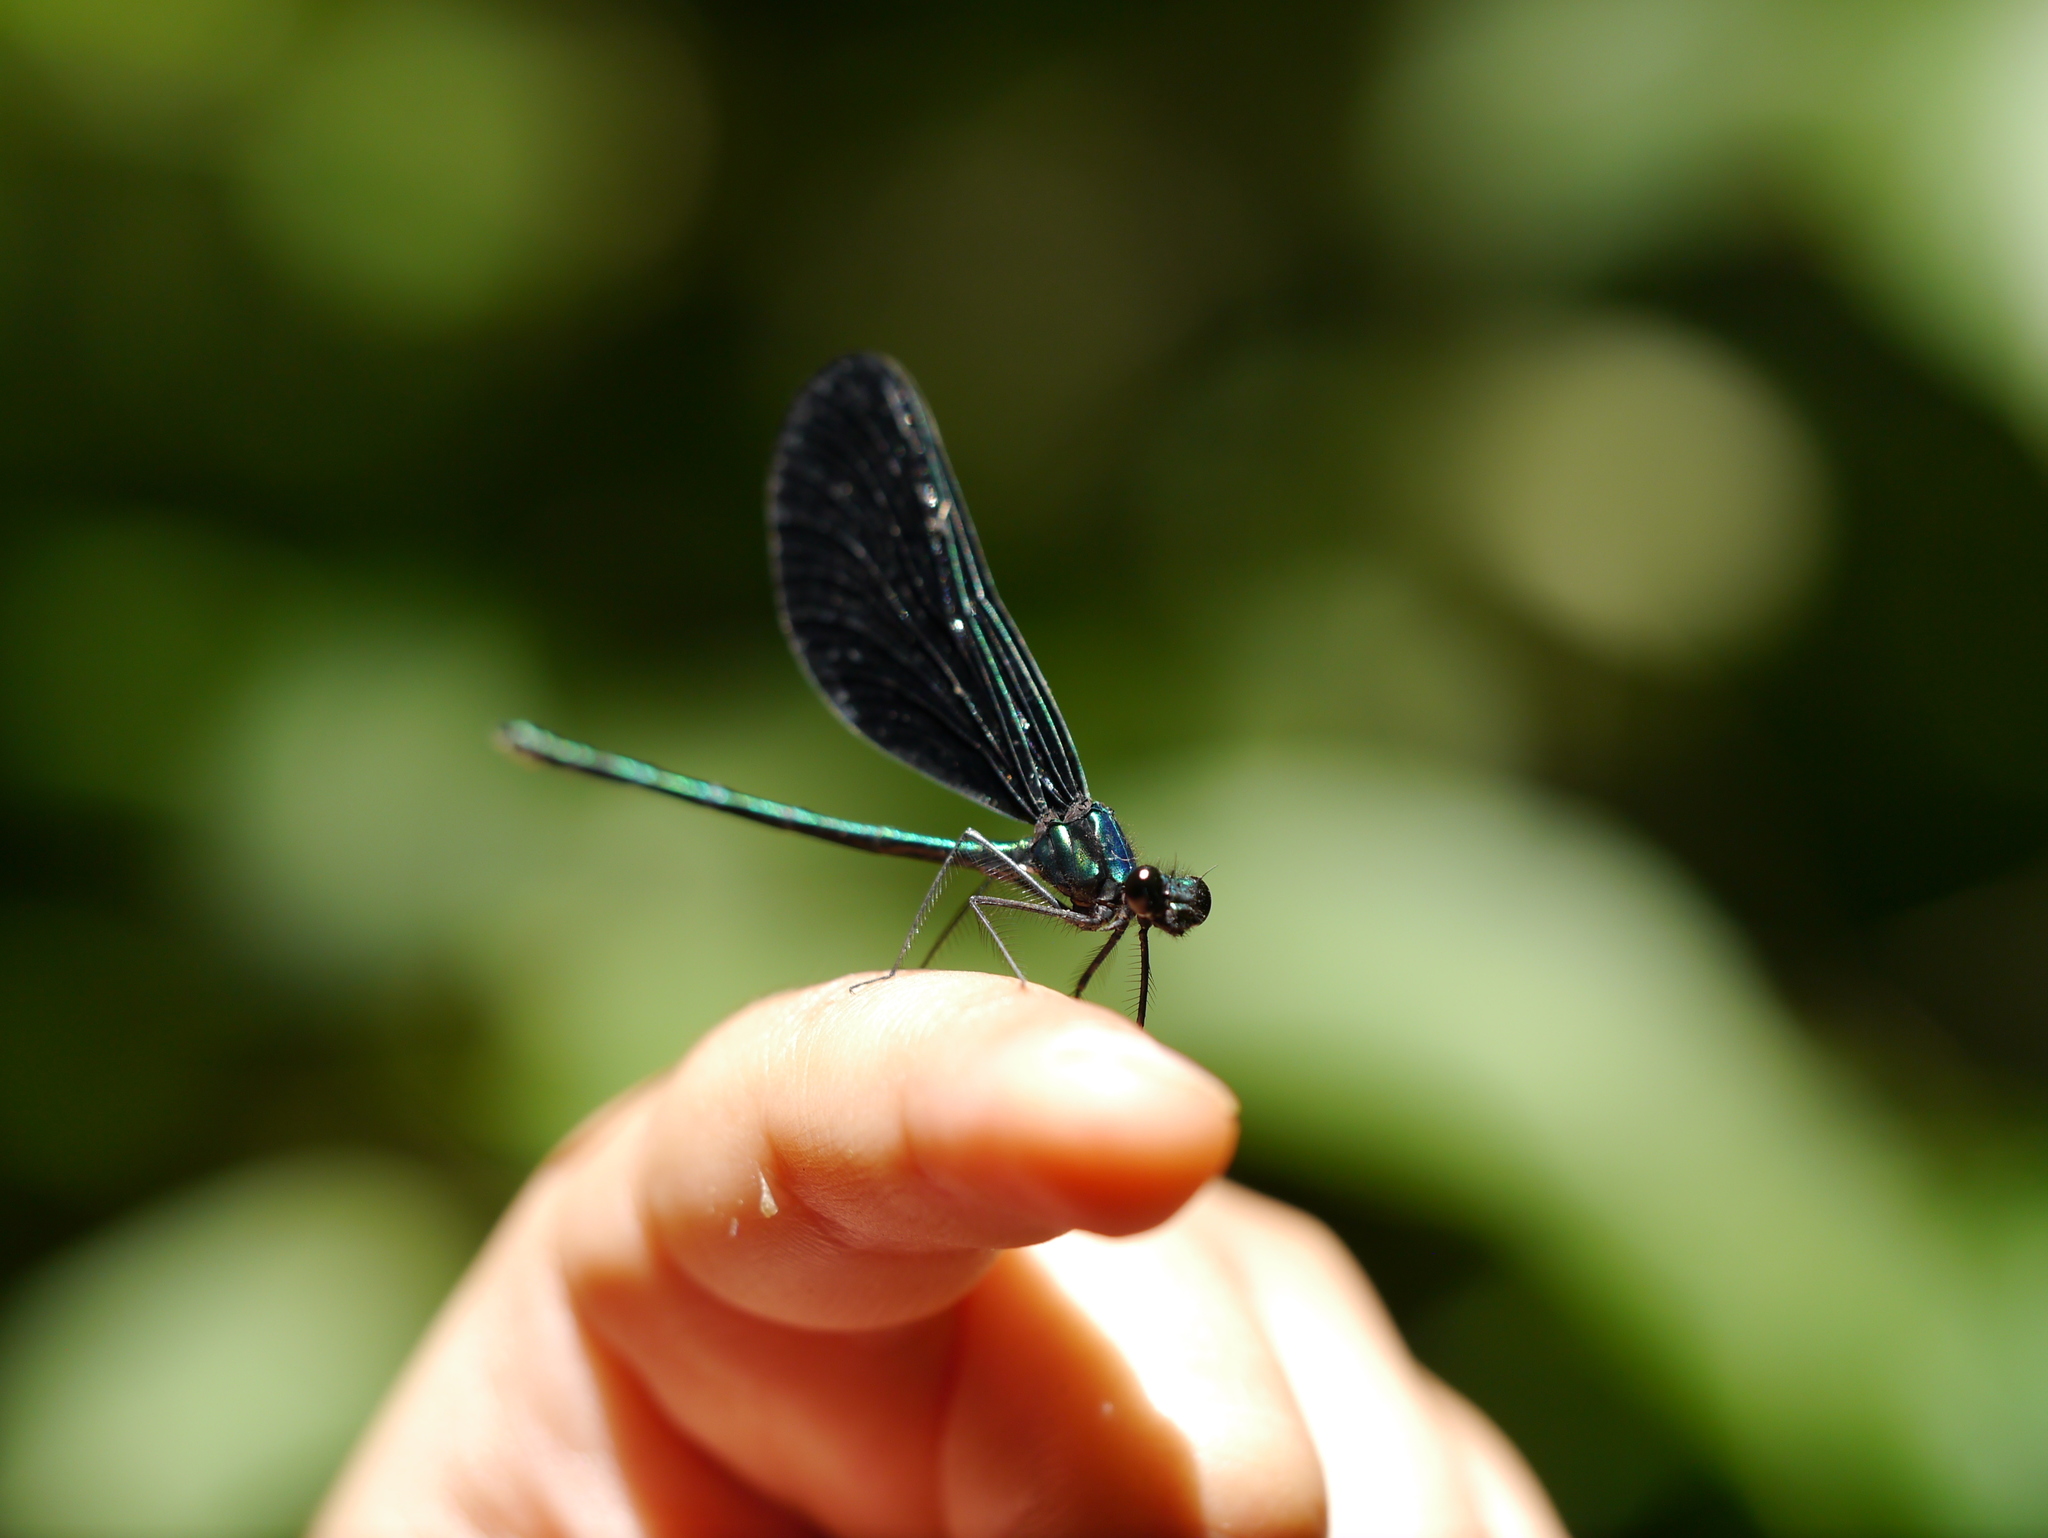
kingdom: Animalia
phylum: Arthropoda
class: Insecta
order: Odonata
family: Calopterygidae
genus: Calopteryx
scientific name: Calopteryx maculata
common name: Ebony jewelwing
